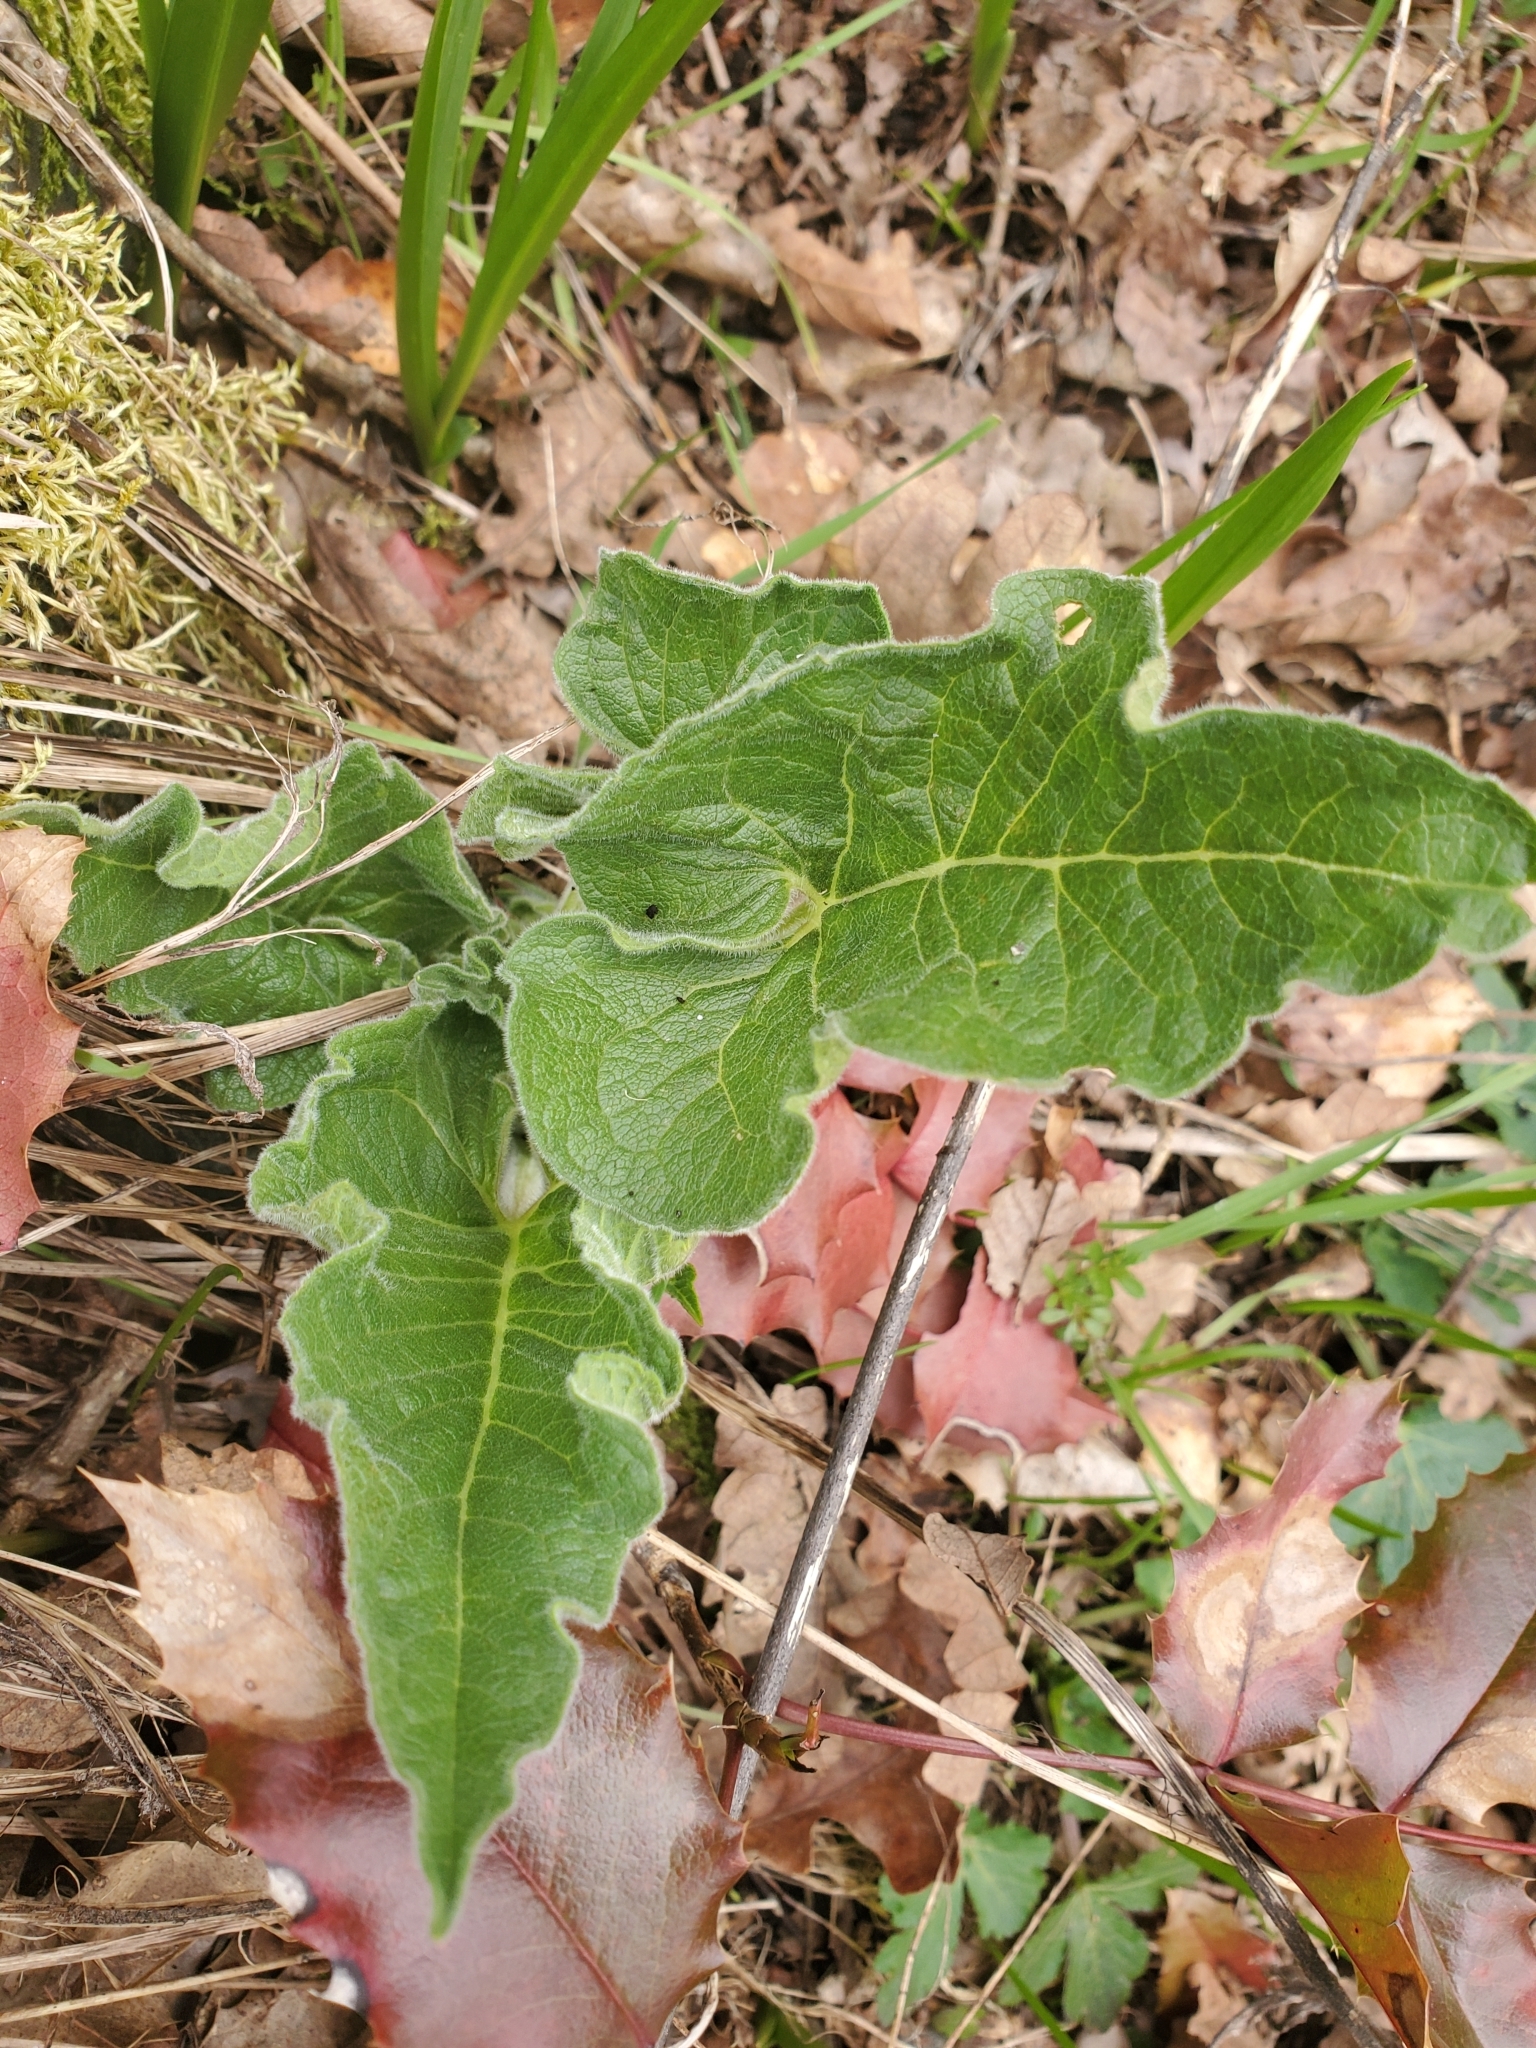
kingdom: Plantae
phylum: Tracheophyta
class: Magnoliopsida
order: Asterales
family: Asteraceae
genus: Balsamorhiza
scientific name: Balsamorhiza deltoidea
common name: Deltoid balsamroot
